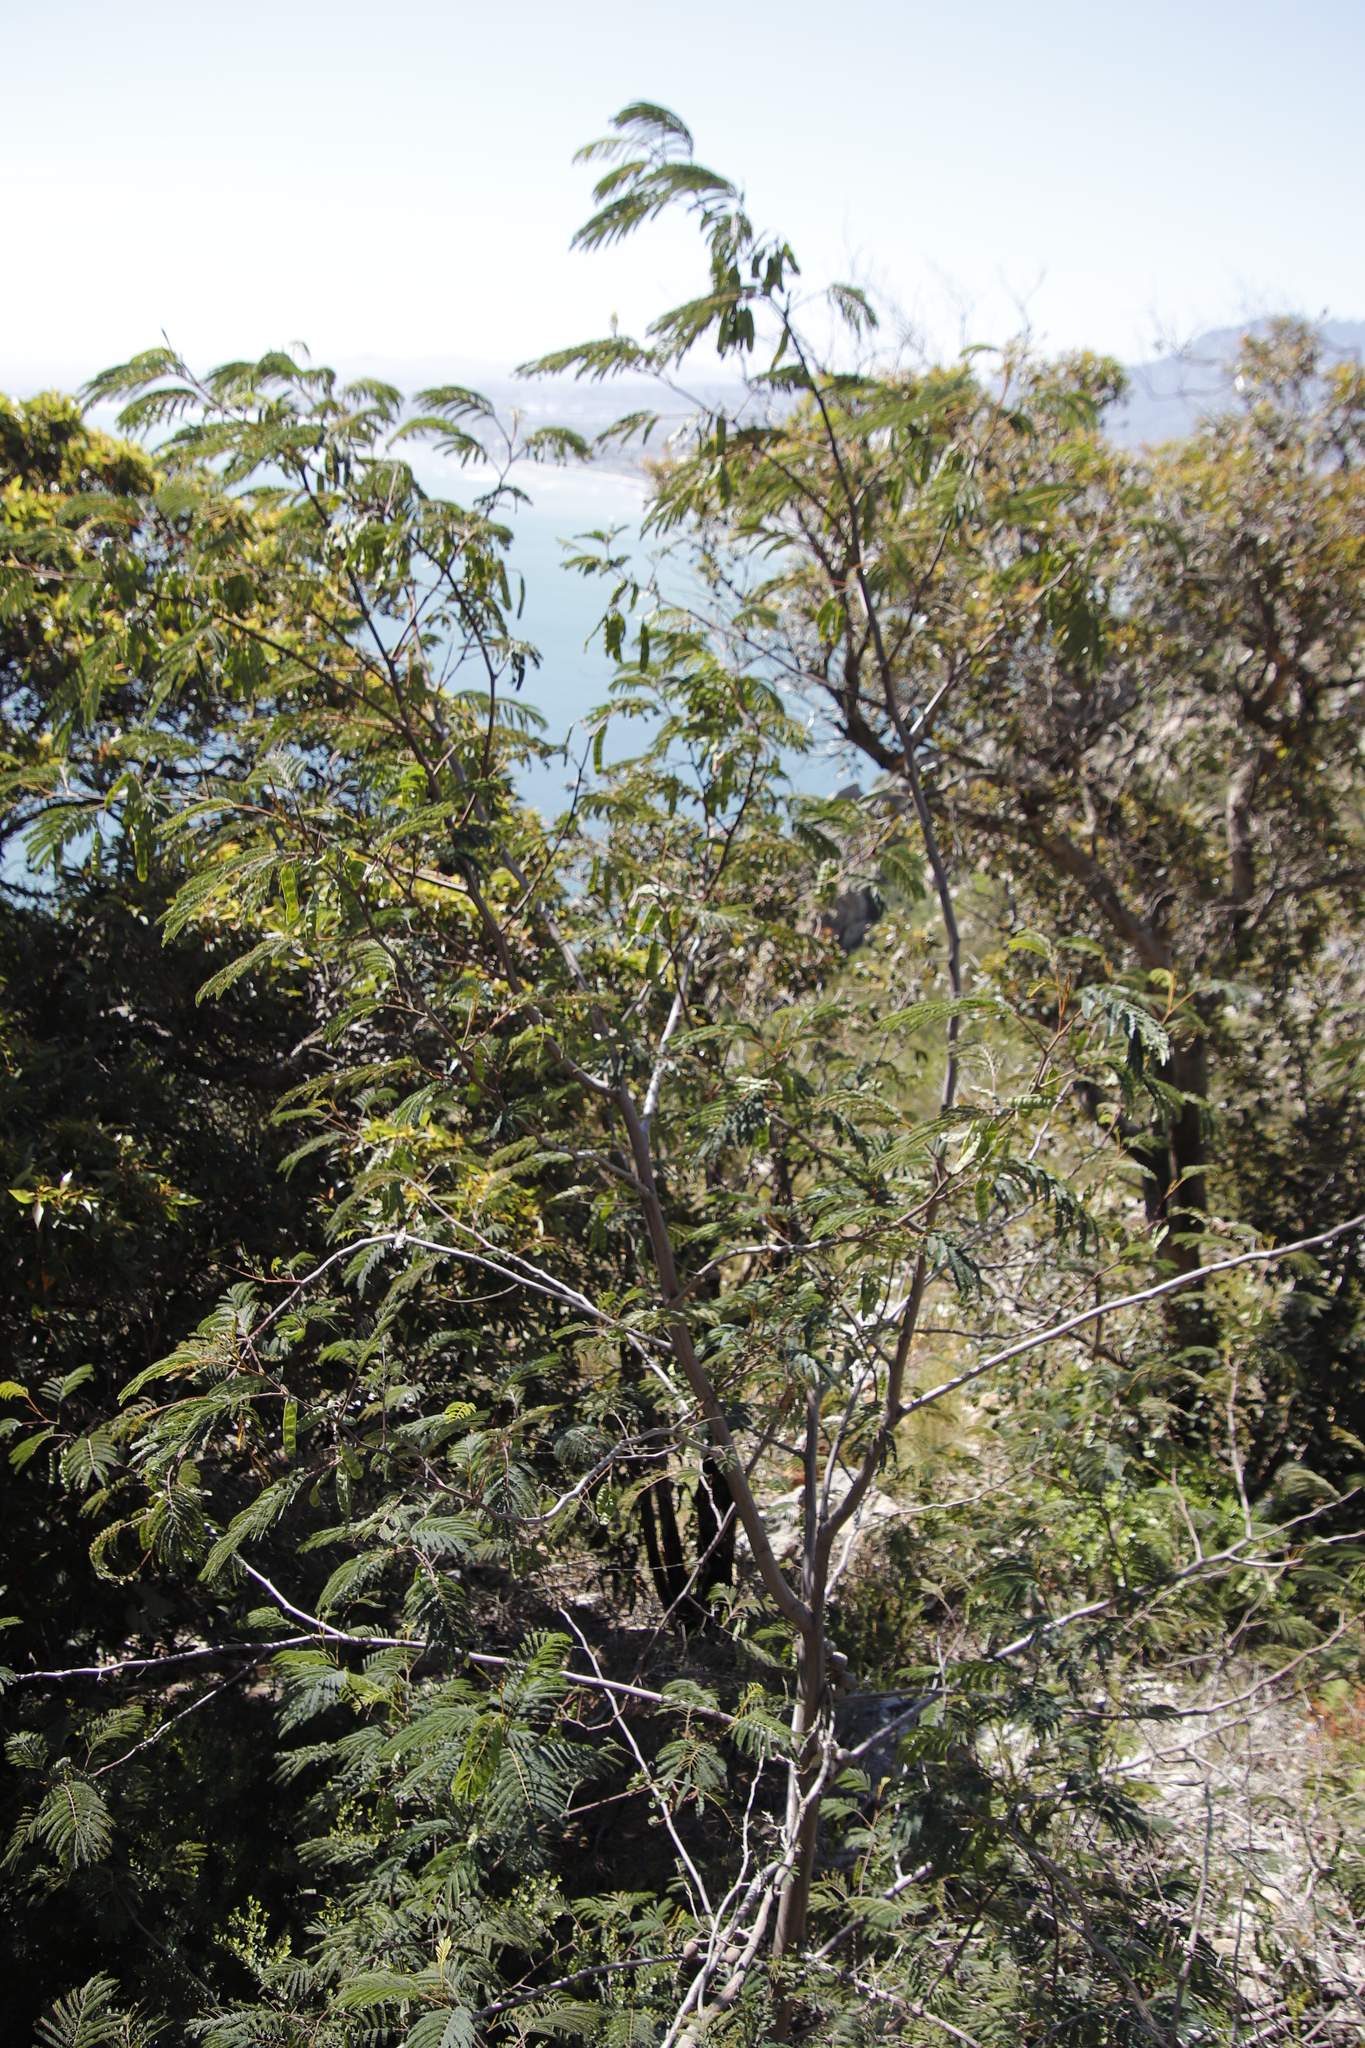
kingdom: Plantae
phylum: Tracheophyta
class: Magnoliopsida
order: Fabales
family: Fabaceae
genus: Paraserianthes
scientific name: Paraserianthes lophantha
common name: Plume albizia
